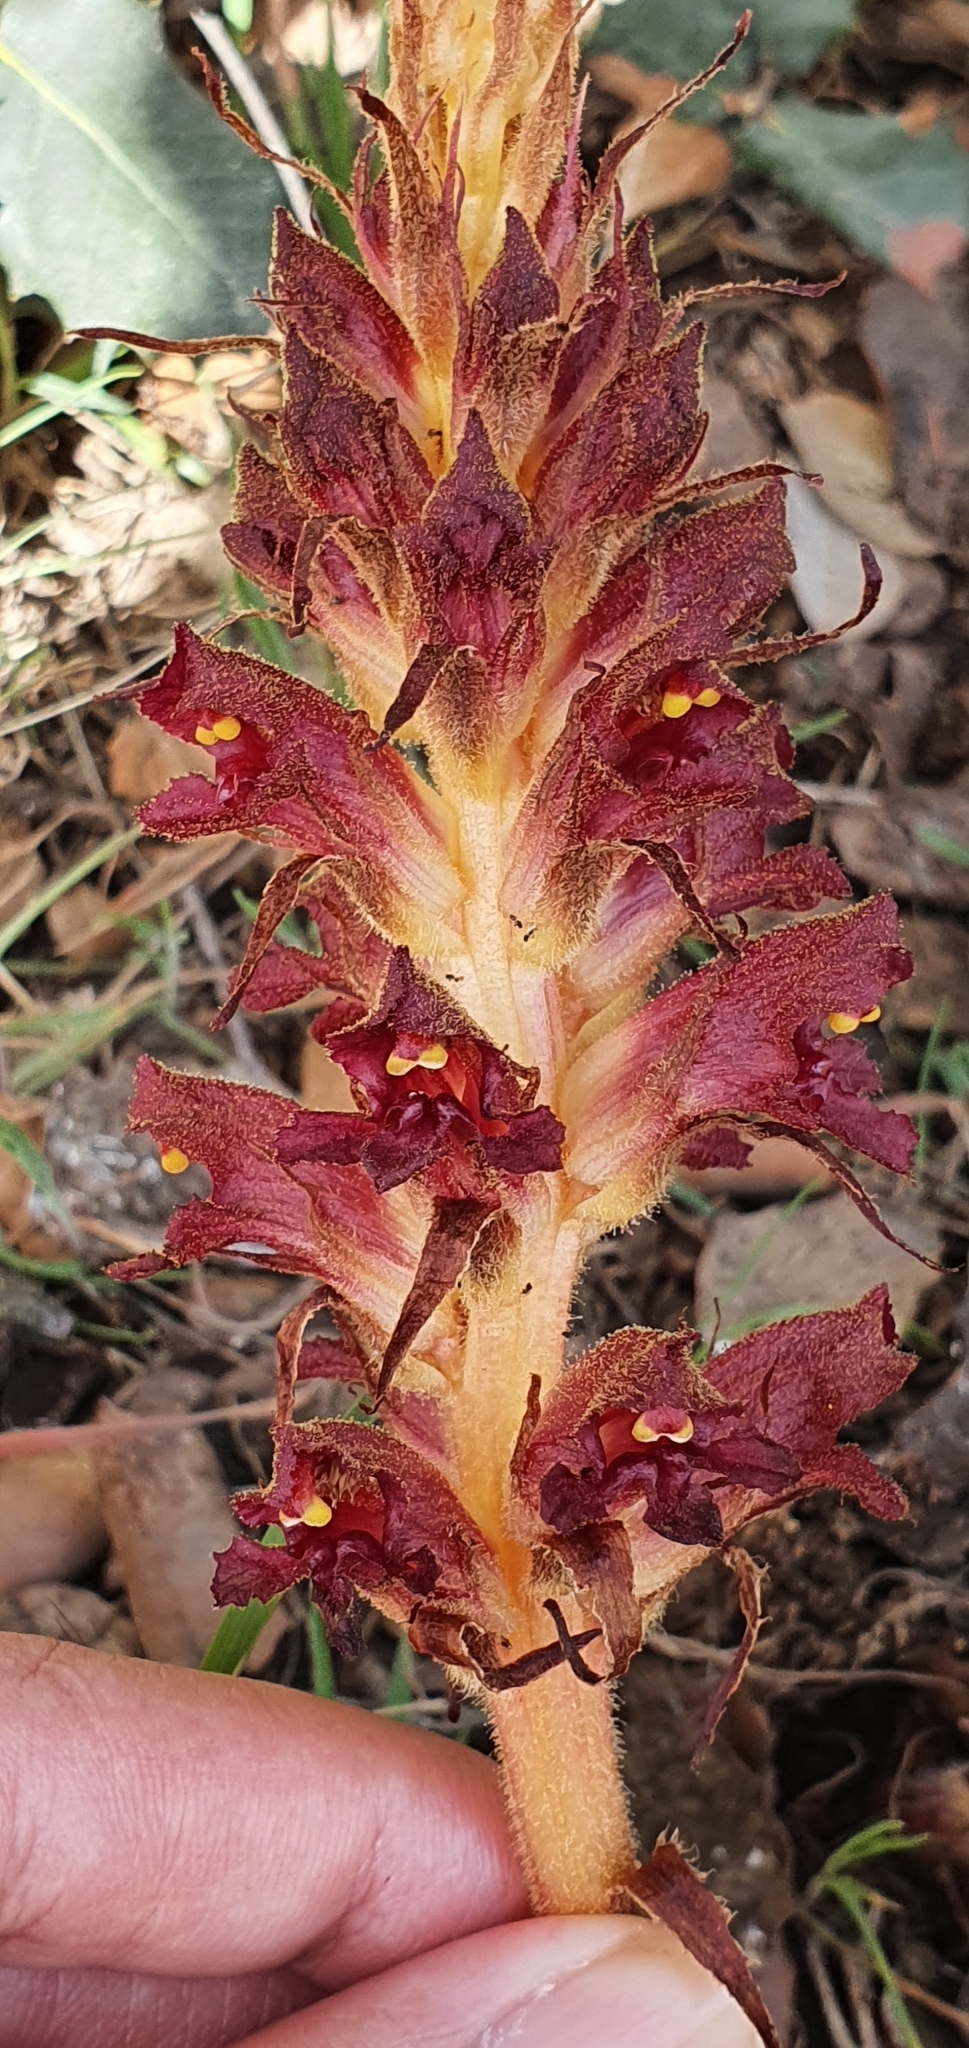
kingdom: Plantae
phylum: Tracheophyta
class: Magnoliopsida
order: Lamiales
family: Orobanchaceae
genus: Orobanche
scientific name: Orobanche variegata
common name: Variegated broomrape
